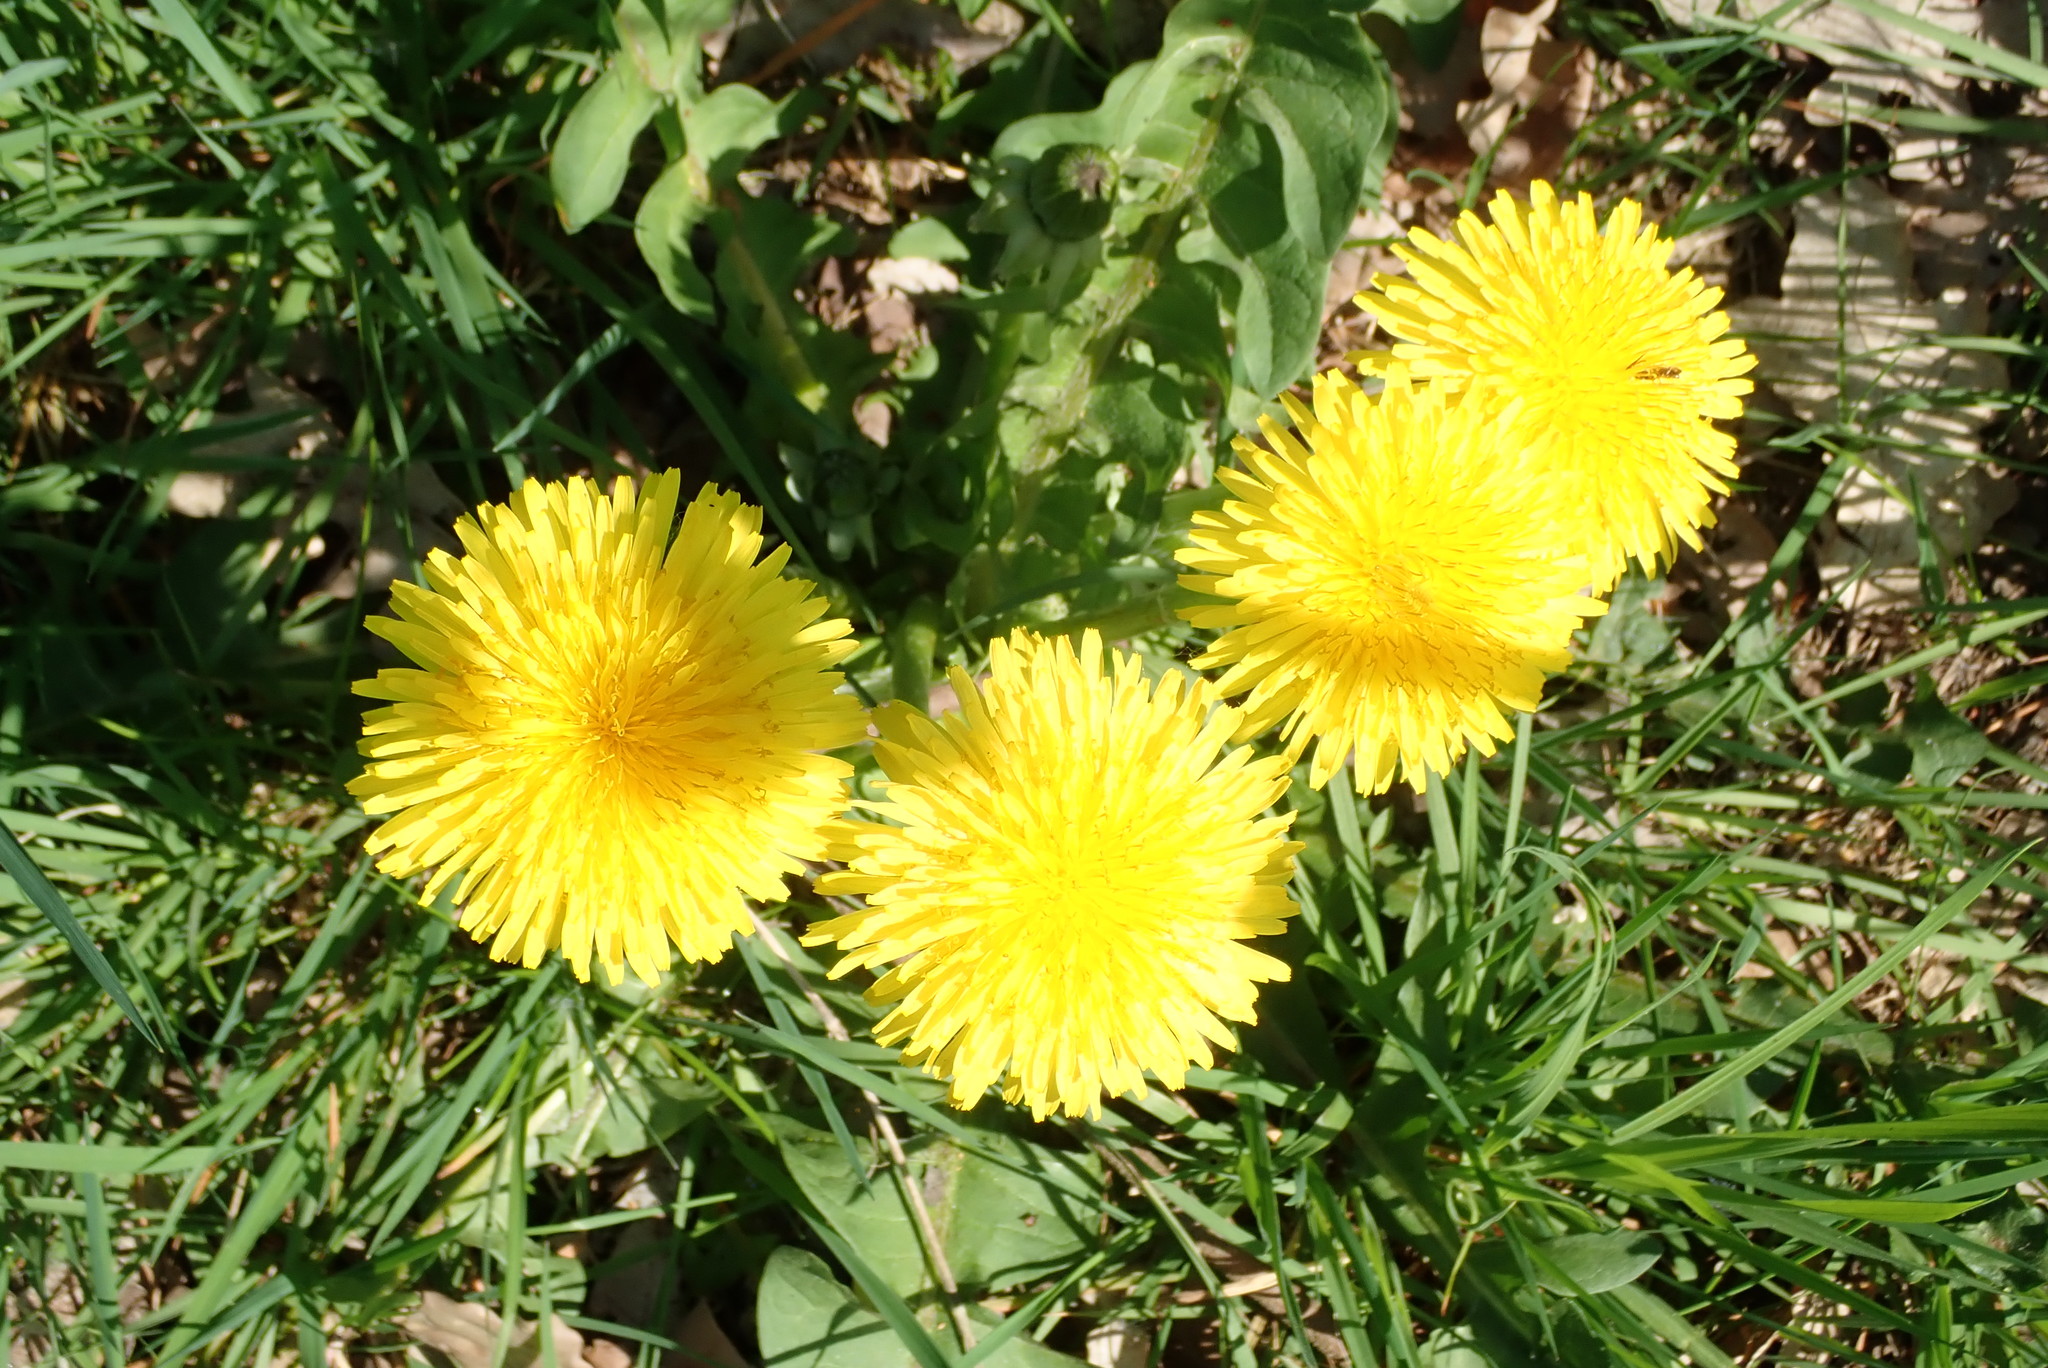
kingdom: Plantae
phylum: Tracheophyta
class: Magnoliopsida
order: Asterales
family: Asteraceae
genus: Taraxacum
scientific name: Taraxacum officinale
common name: Common dandelion
